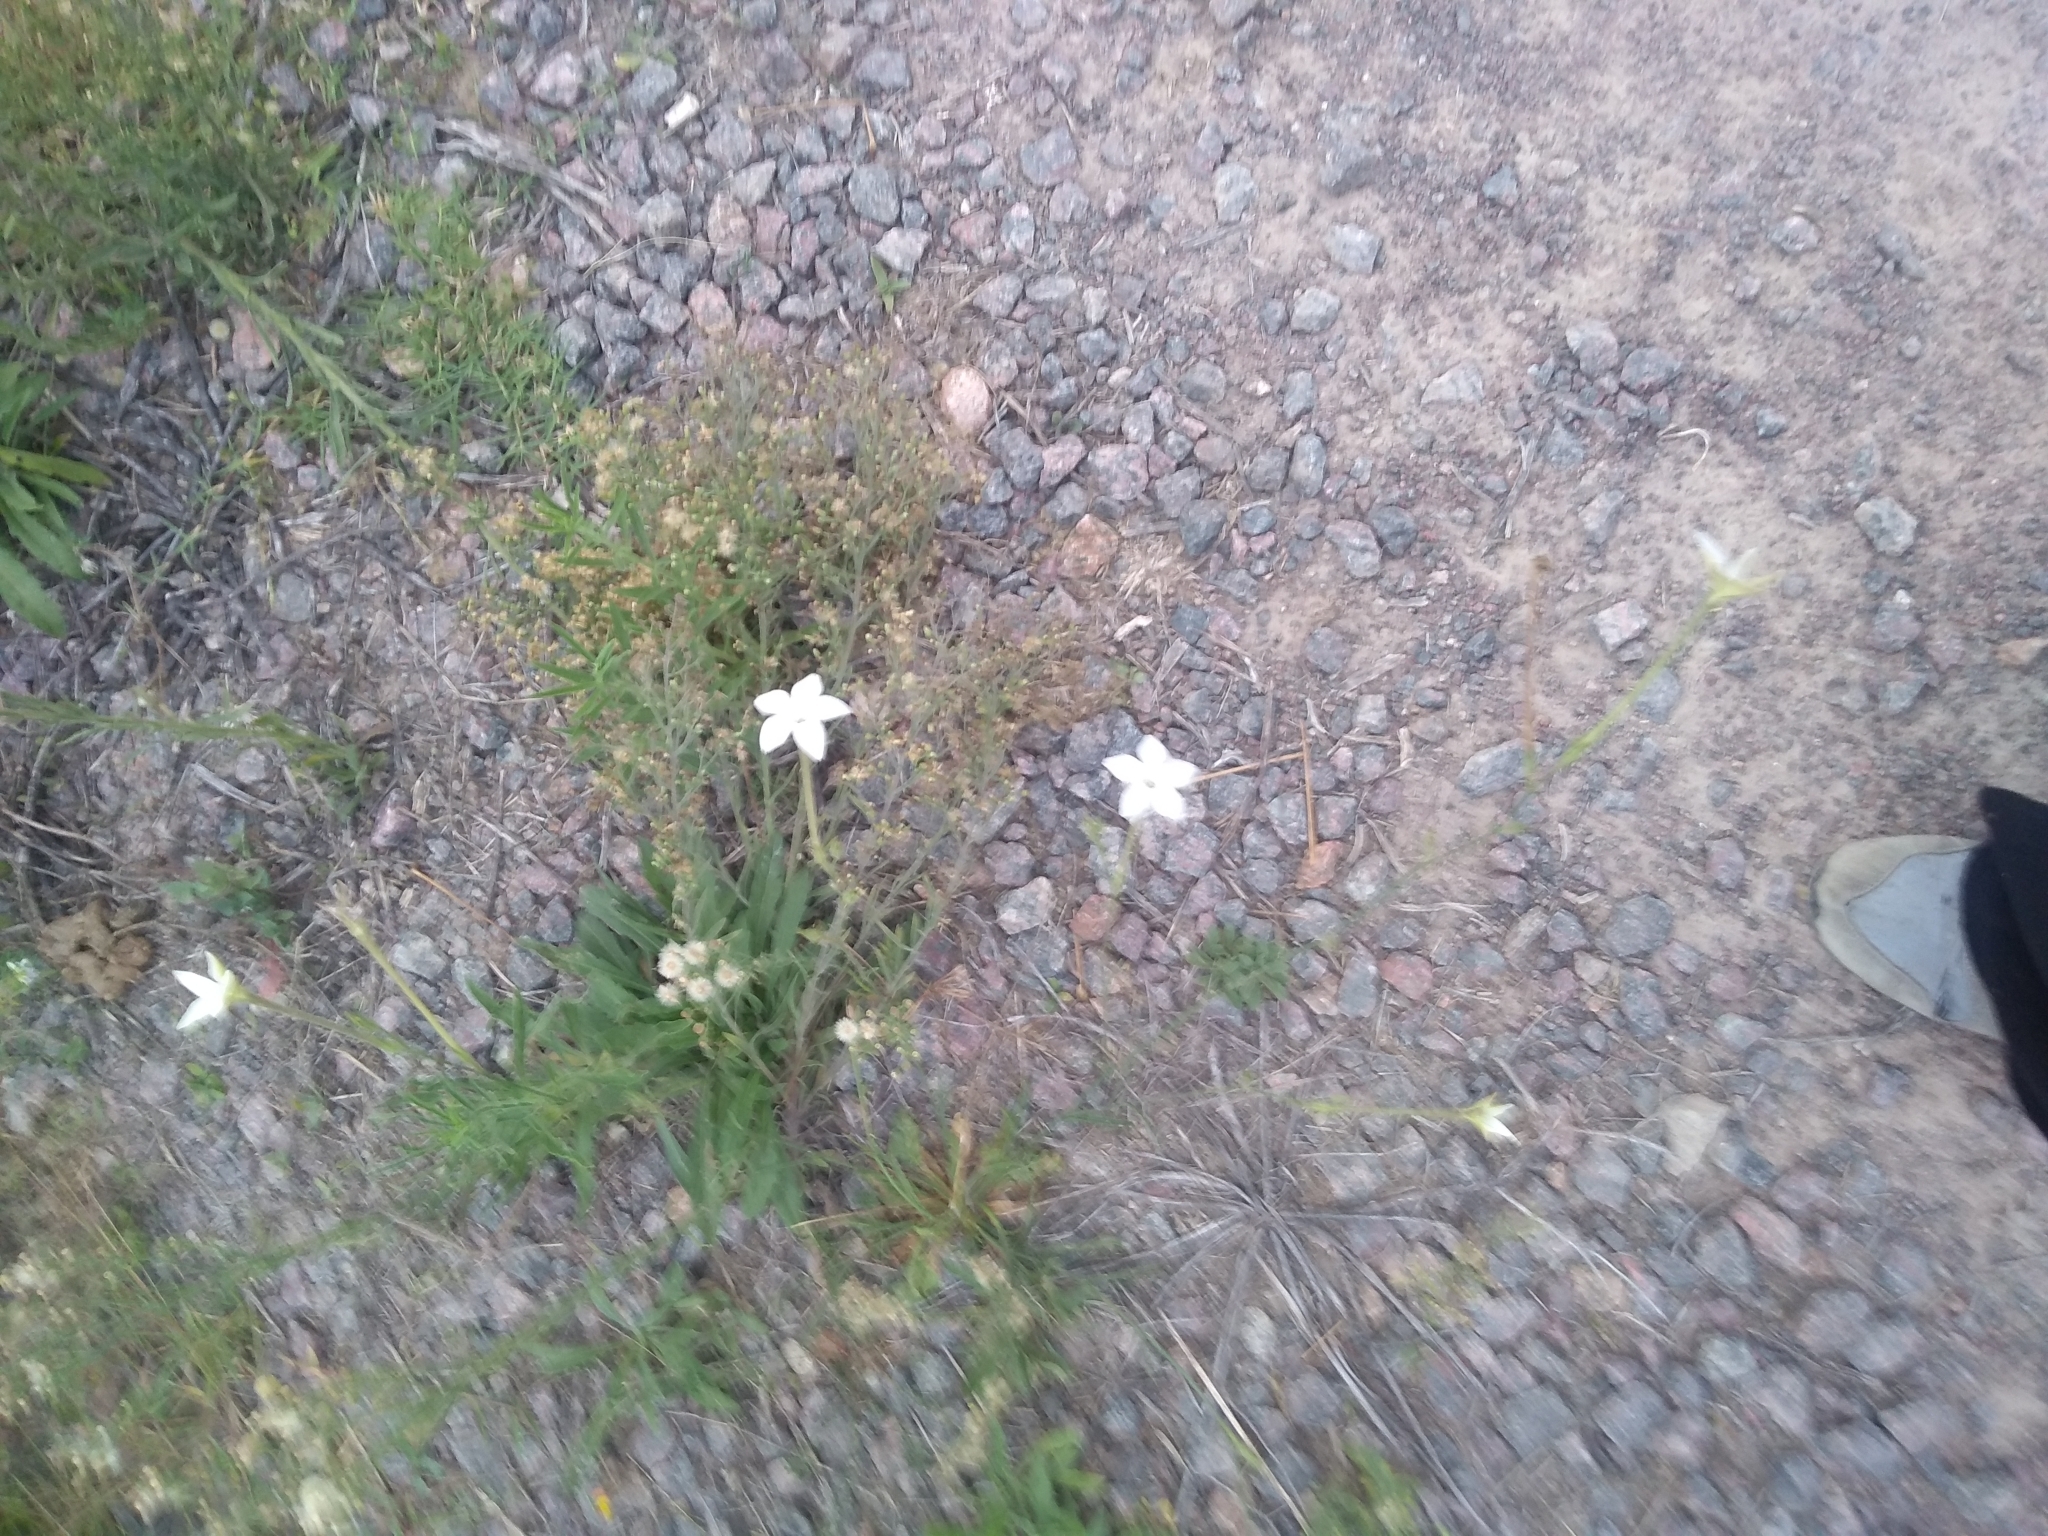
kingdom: Plantae
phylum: Tracheophyta
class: Magnoliopsida
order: Solanales
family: Solanaceae
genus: Nicotiana
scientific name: Nicotiana longiflora
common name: Long-flowered tobacco
